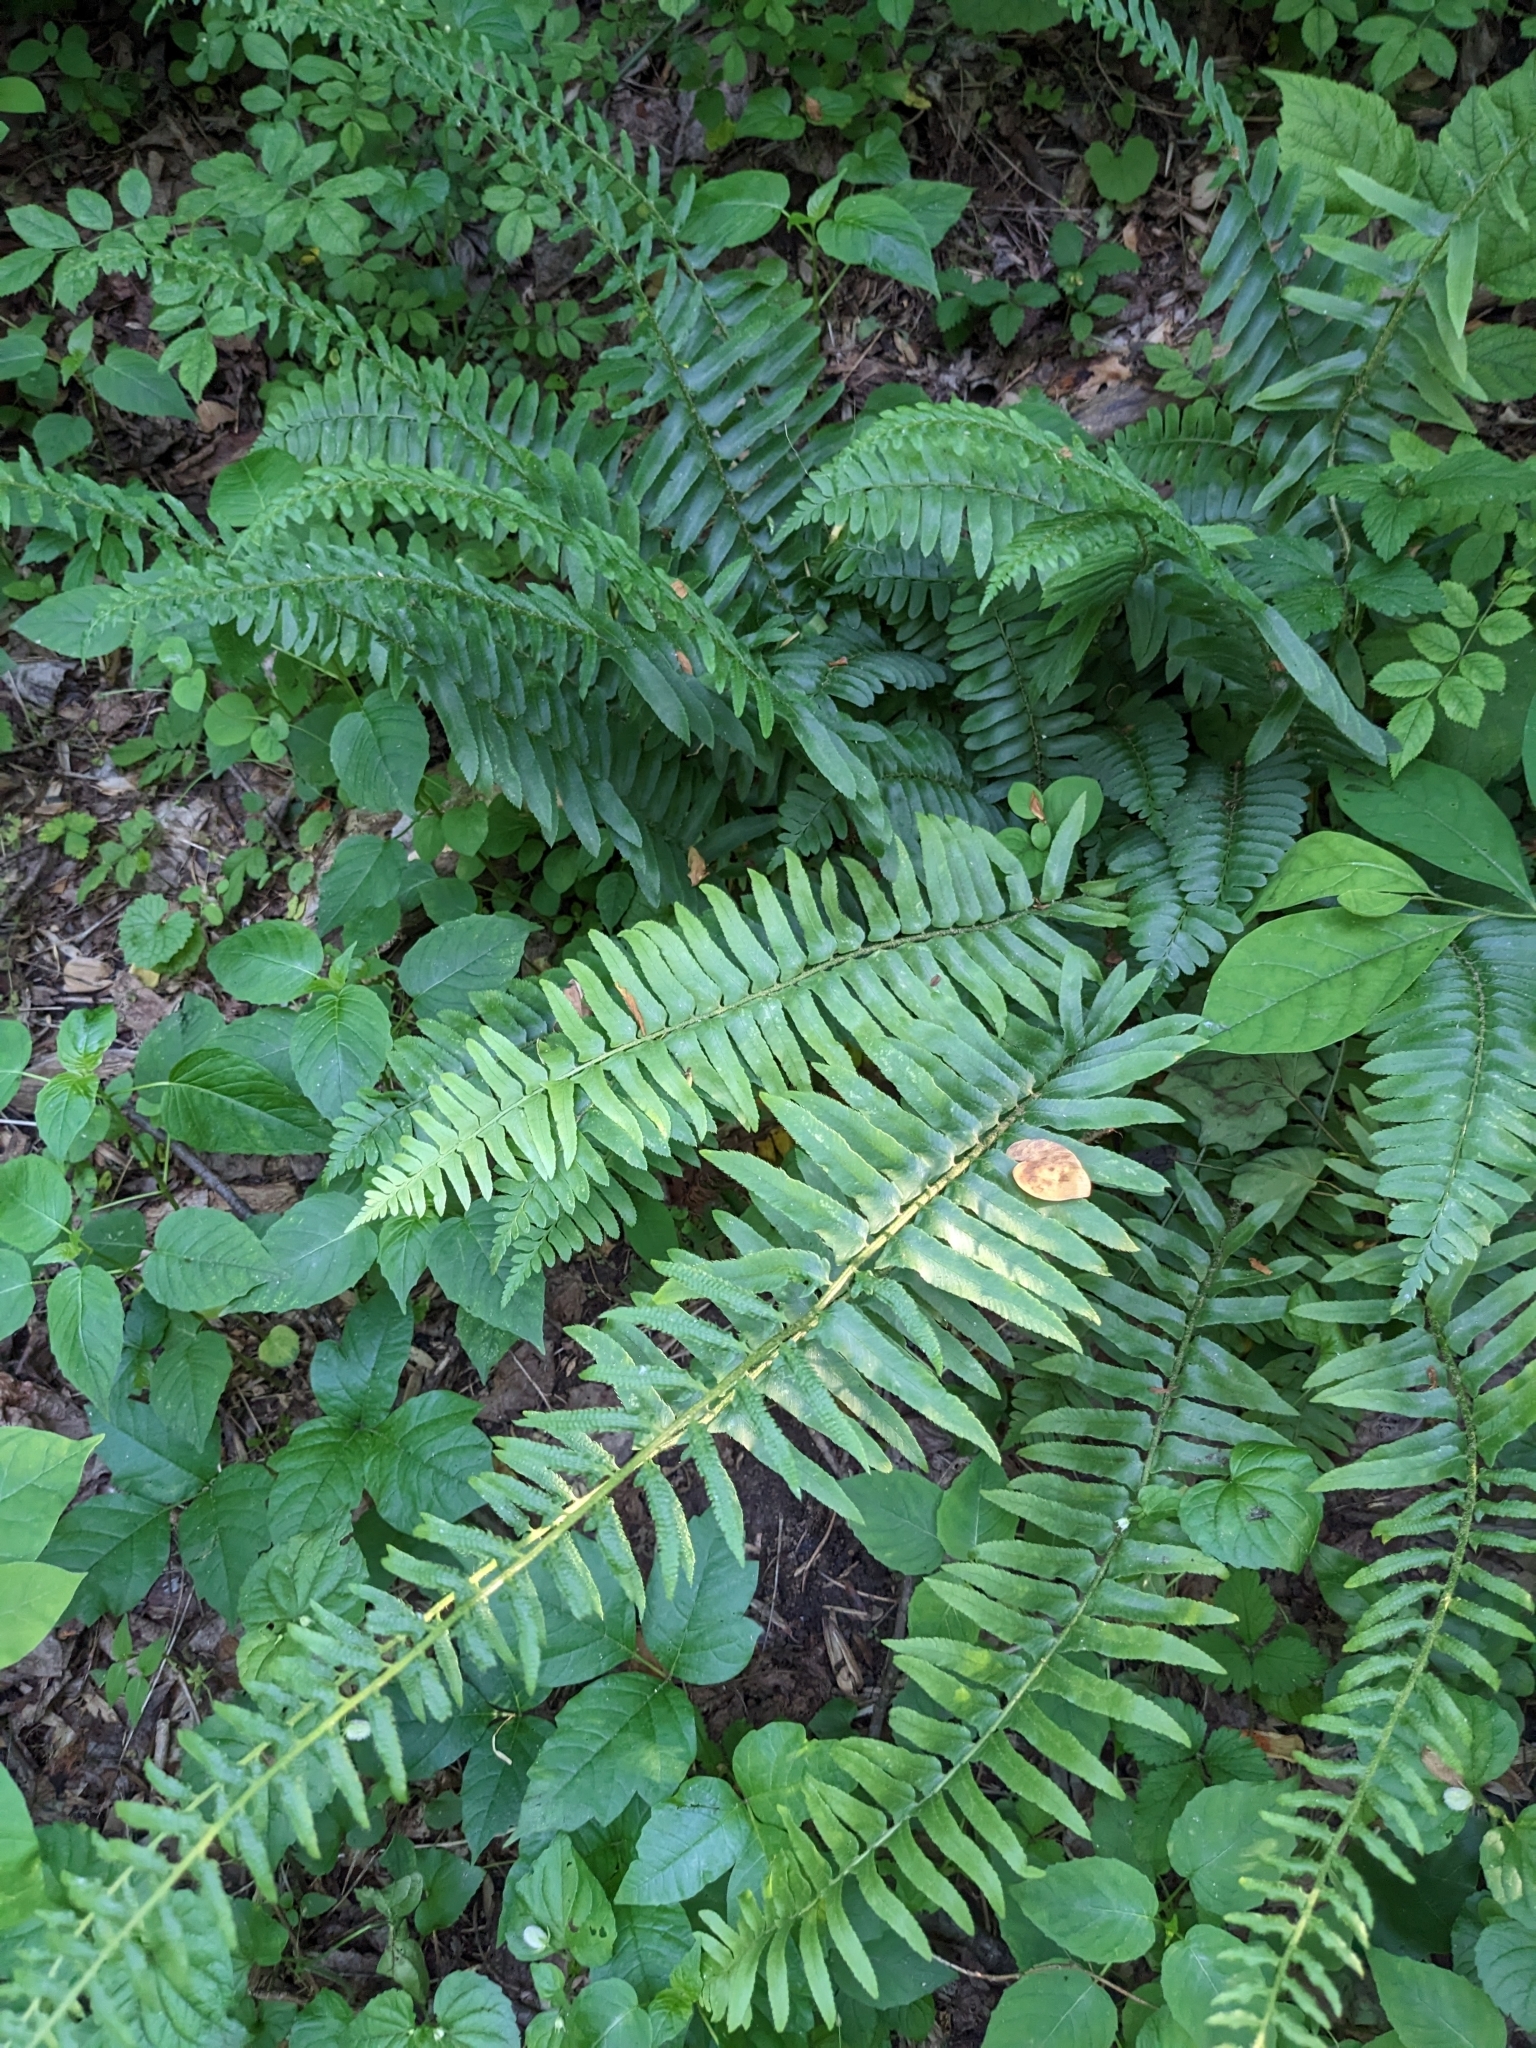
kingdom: Plantae
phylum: Tracheophyta
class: Polypodiopsida
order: Polypodiales
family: Dryopteridaceae
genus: Polystichum
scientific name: Polystichum acrostichoides
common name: Christmas fern
